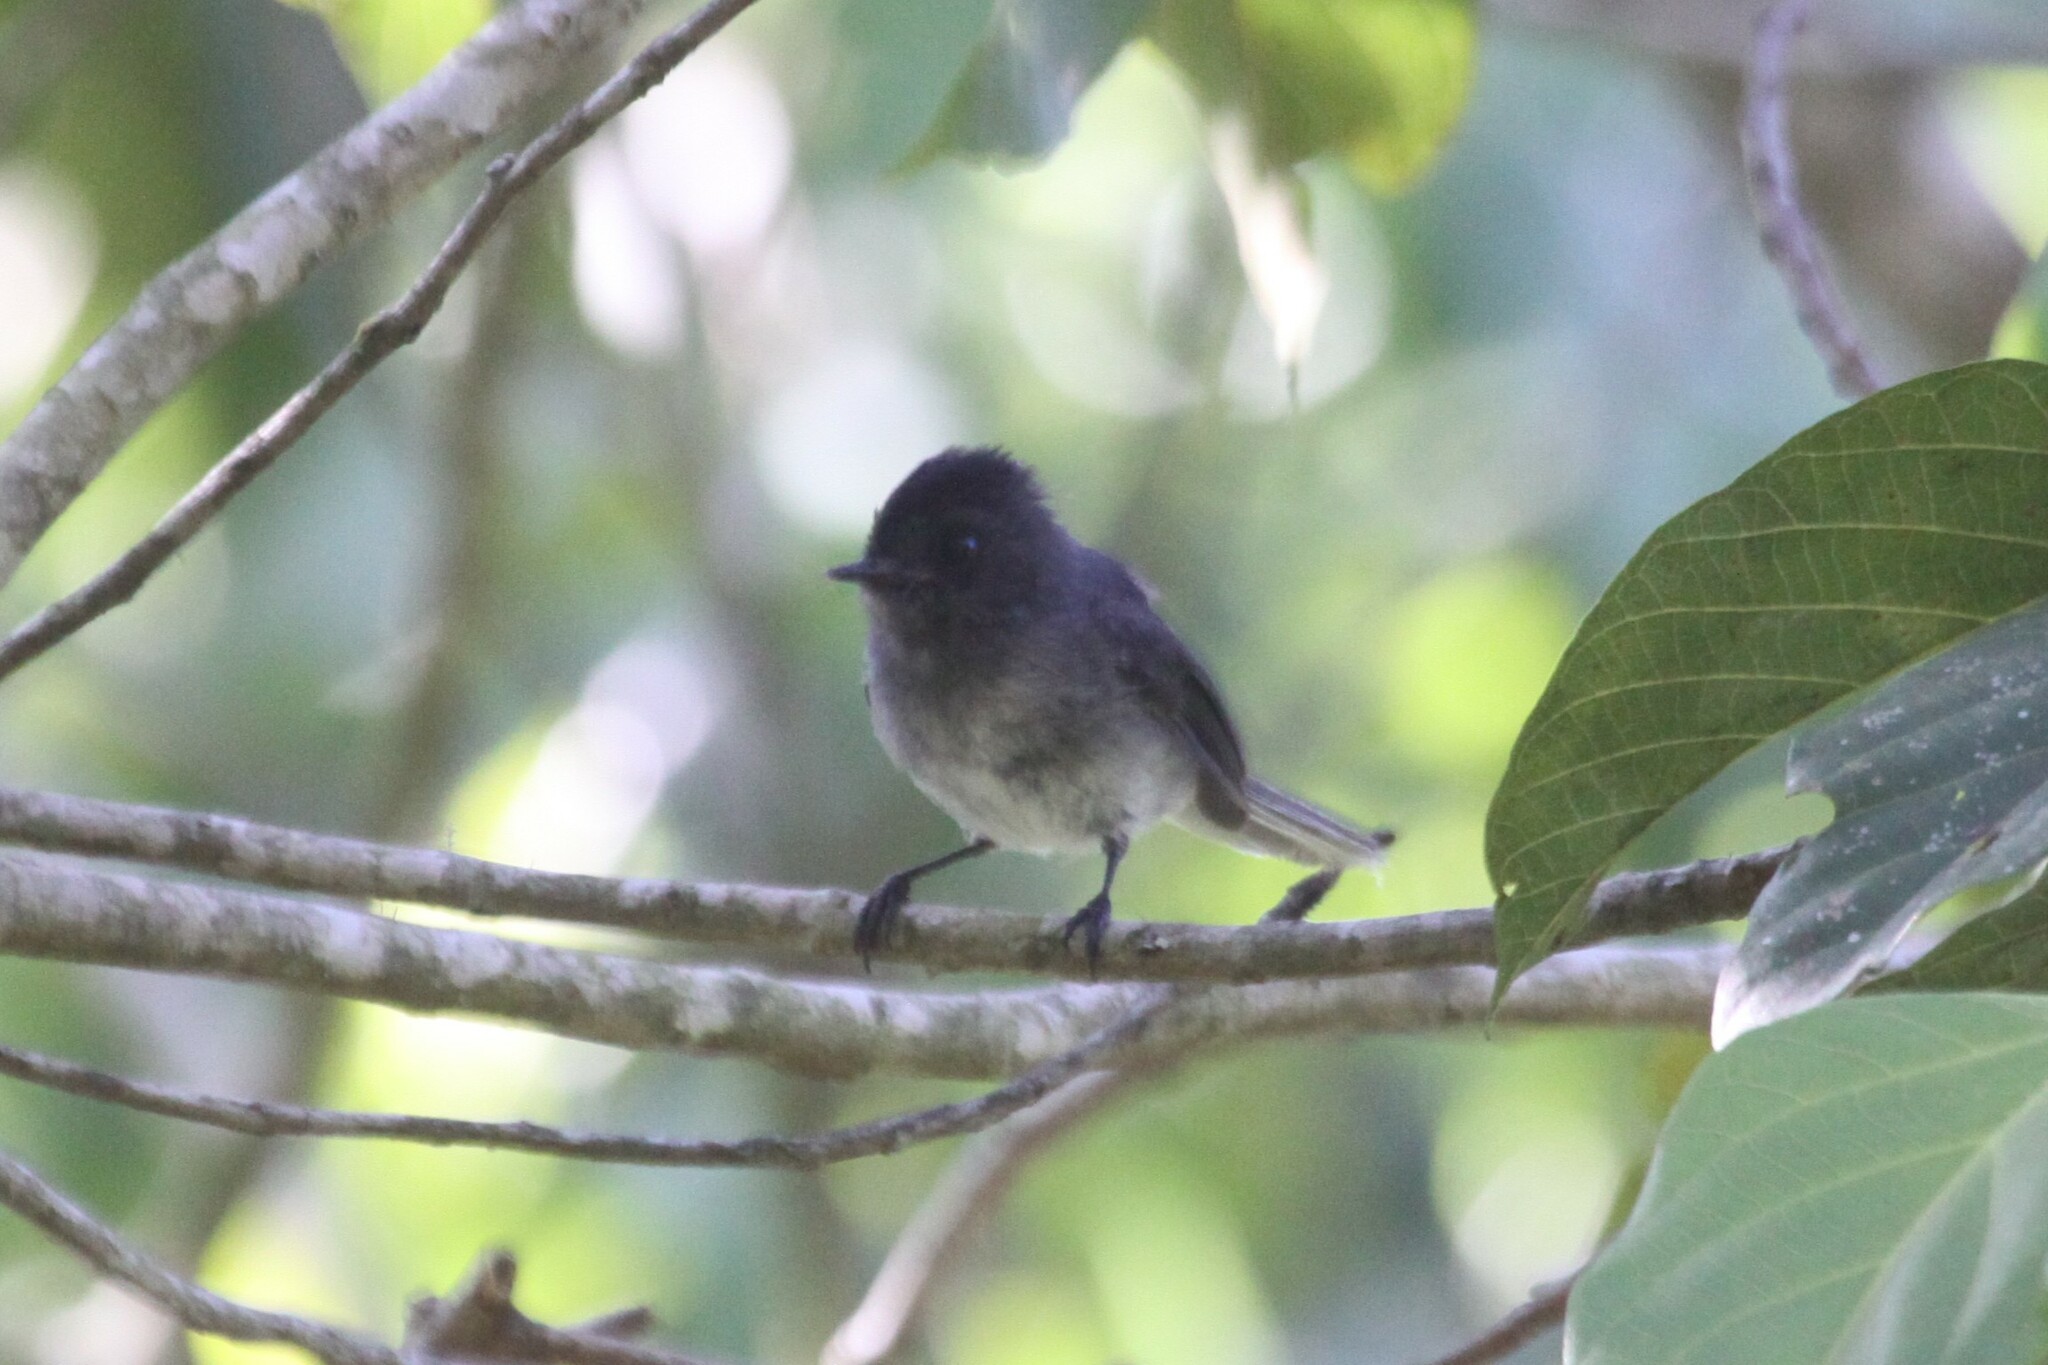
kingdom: Animalia
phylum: Chordata
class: Aves
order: Passeriformes
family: Stenostiridae
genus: Elminia
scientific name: Elminia albonotata
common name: White-tailed crested-flycatcher
